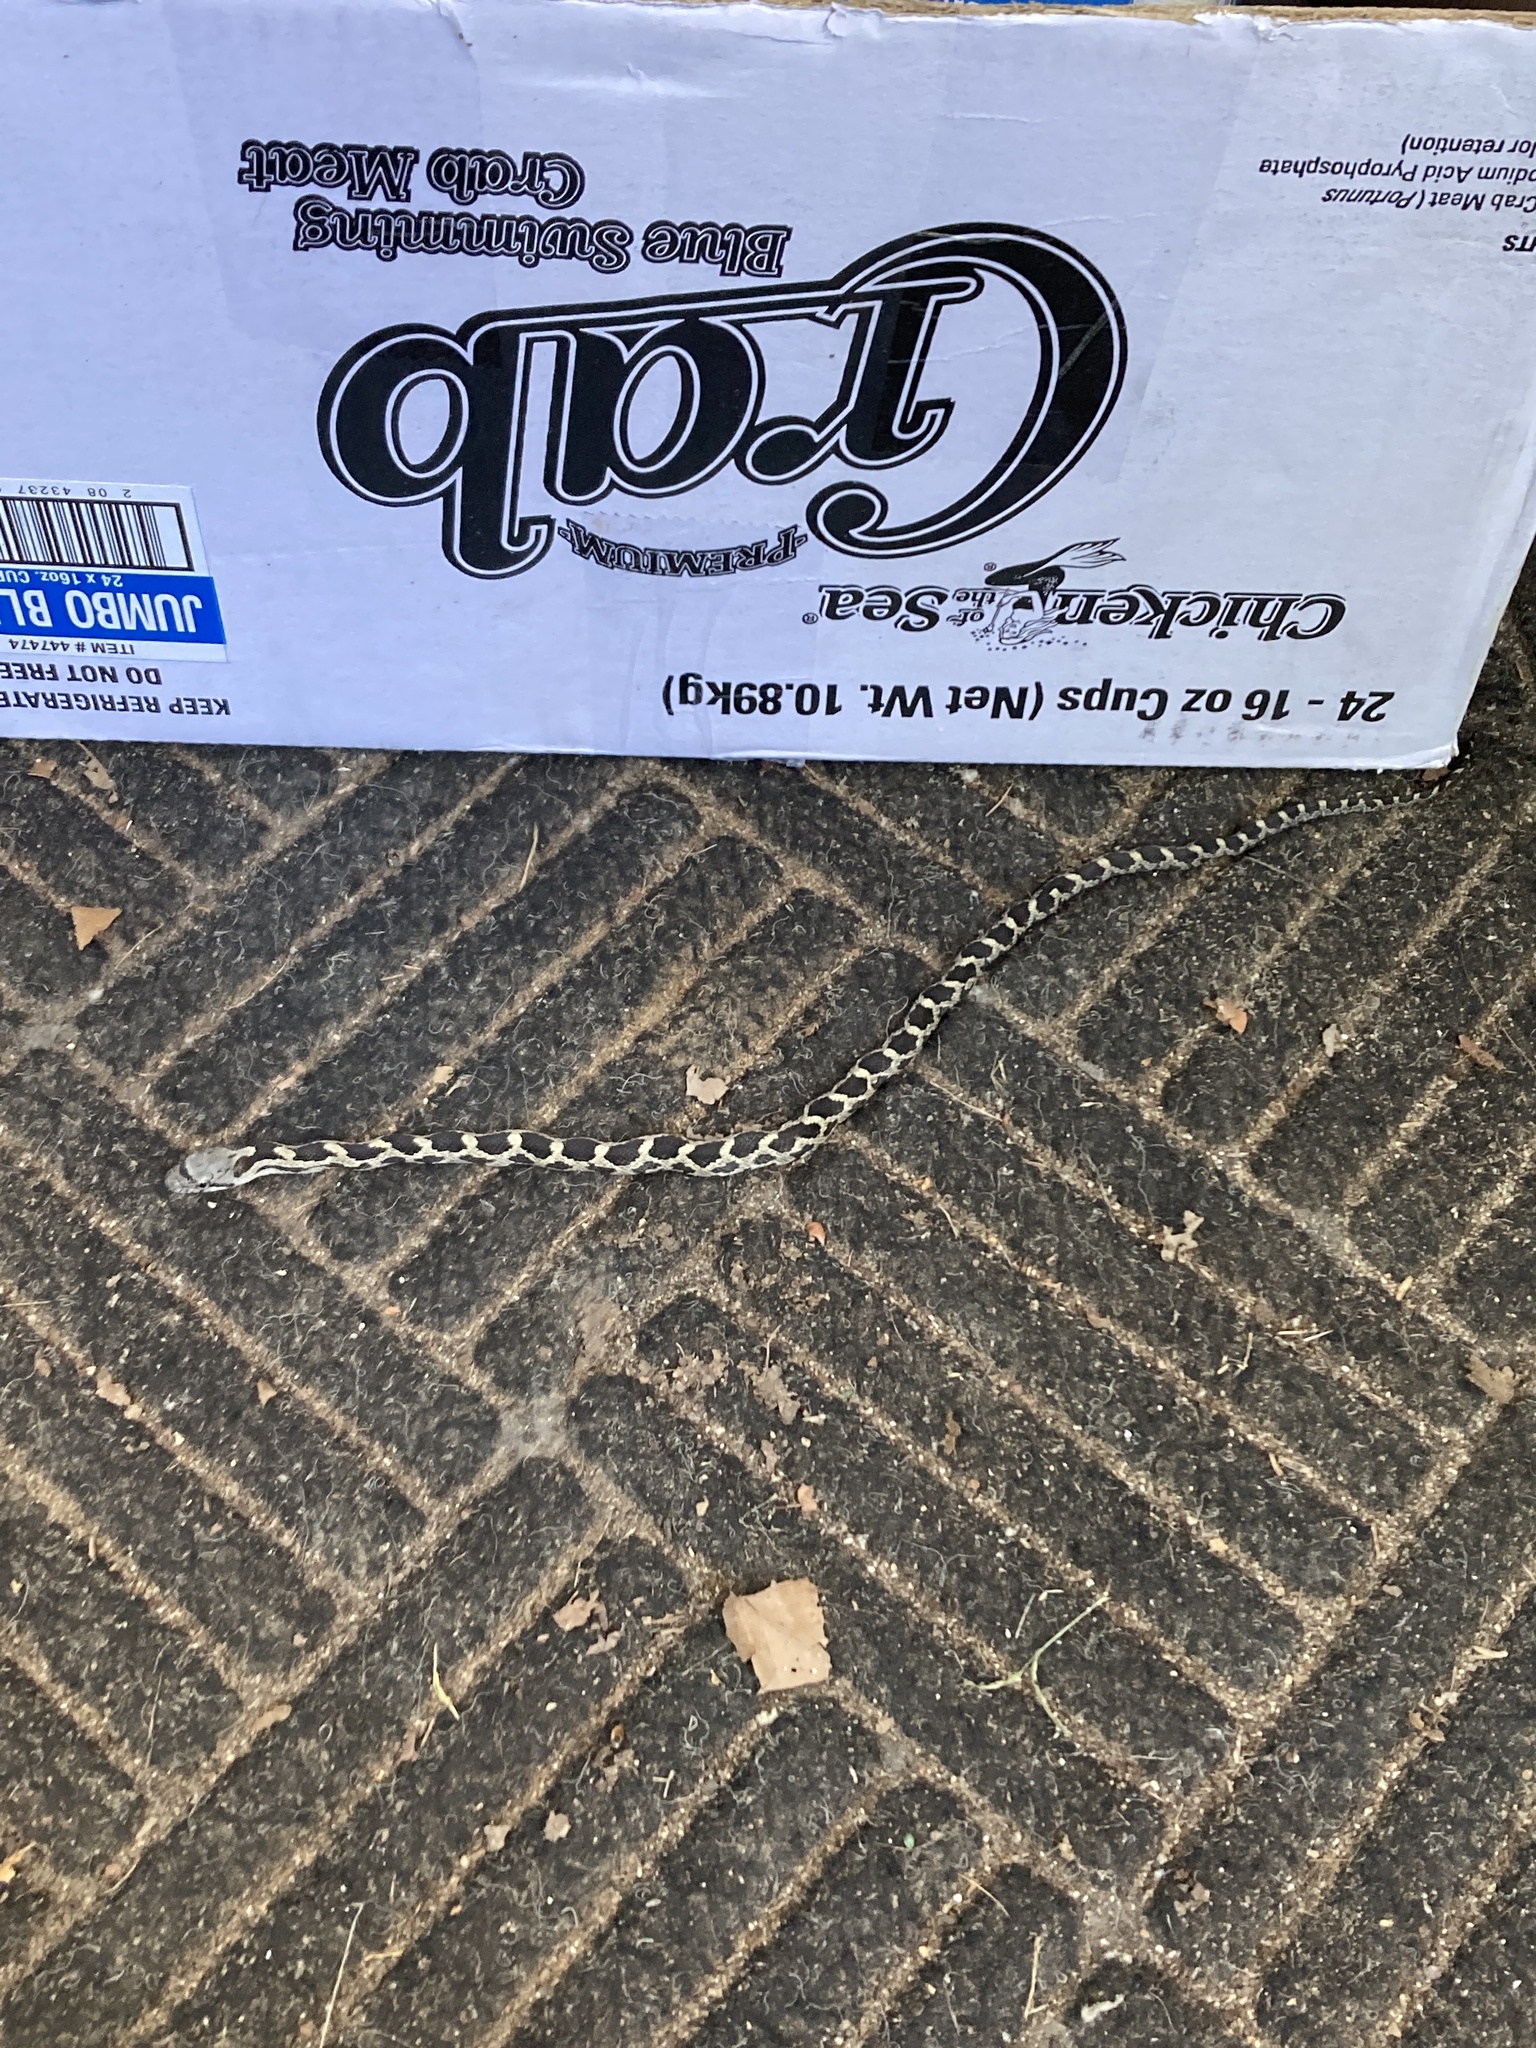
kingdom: Animalia
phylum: Chordata
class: Squamata
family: Colubridae
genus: Pantherophis
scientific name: Pantherophis spiloides
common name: Gray rat snake
